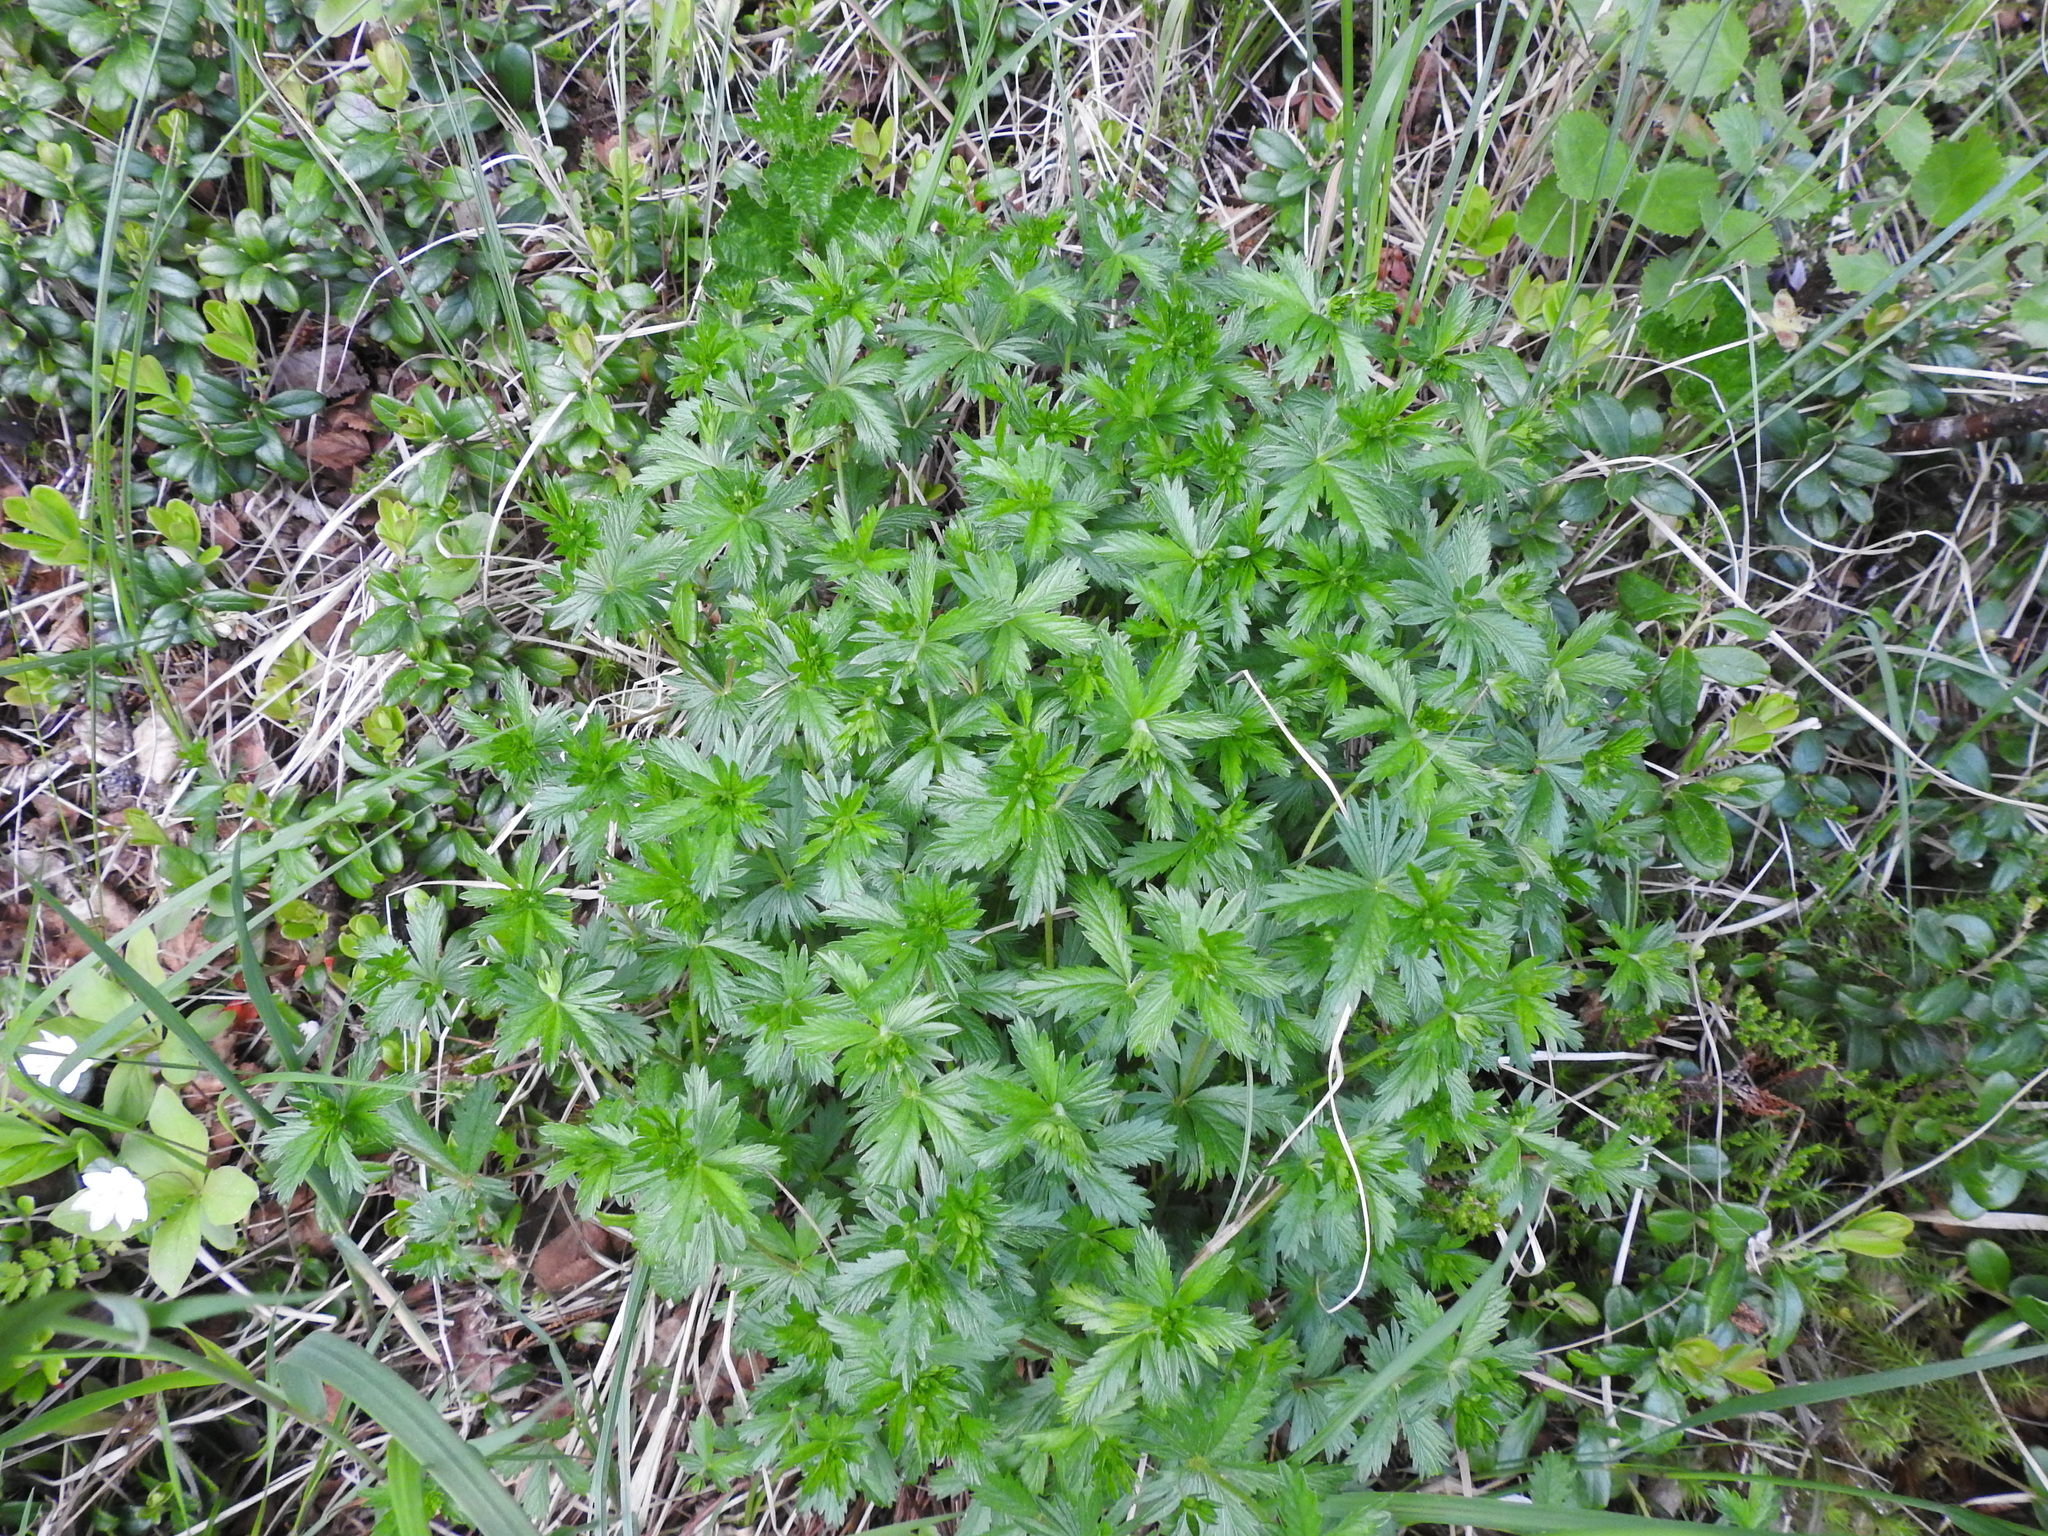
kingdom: Plantae
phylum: Tracheophyta
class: Magnoliopsida
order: Rosales
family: Rosaceae
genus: Potentilla
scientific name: Potentilla erecta
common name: Tormentil
